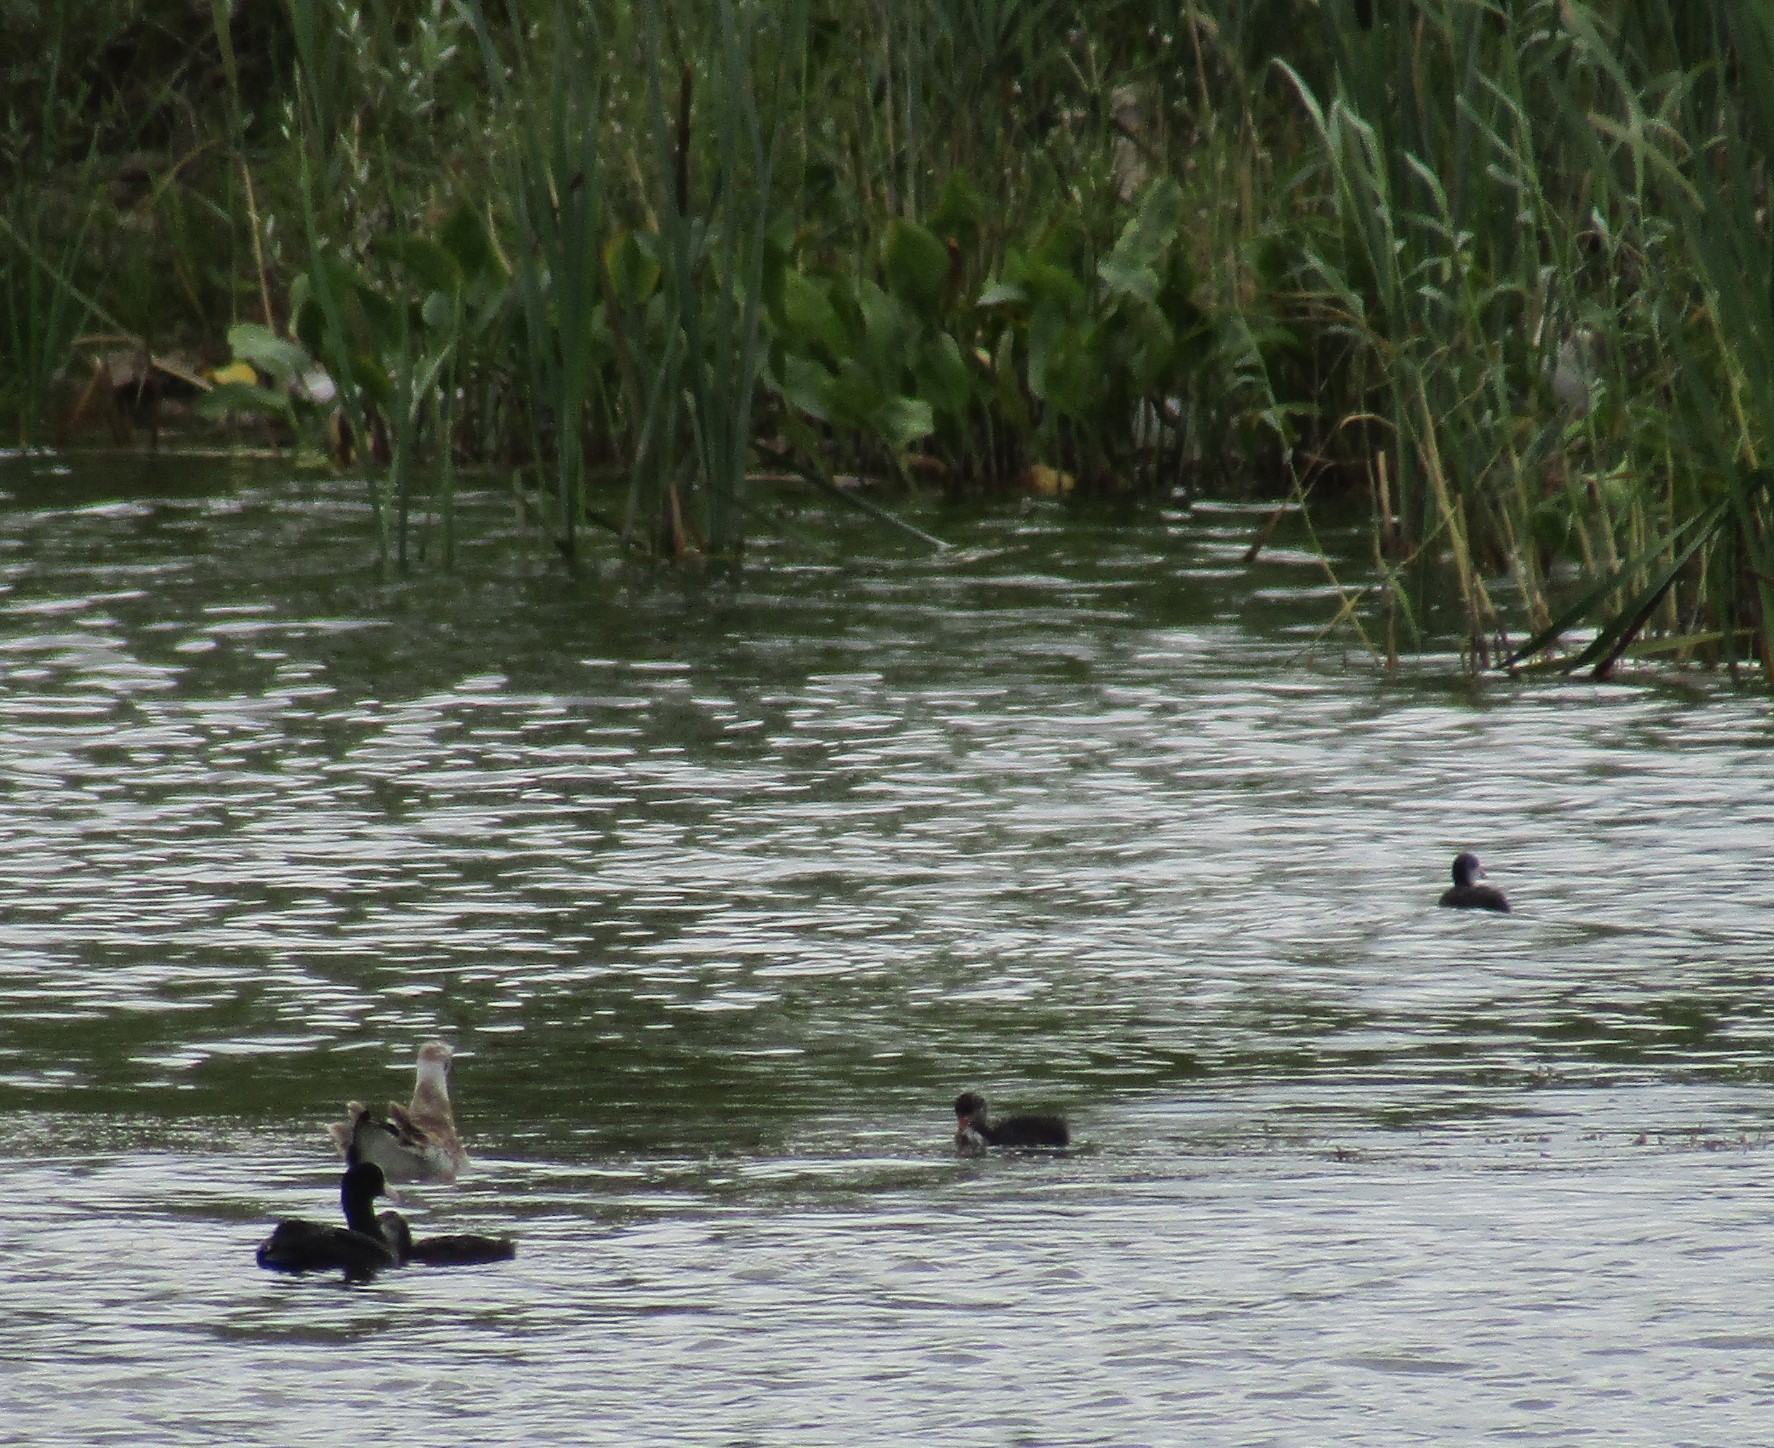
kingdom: Animalia
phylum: Chordata
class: Aves
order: Gruiformes
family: Rallidae
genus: Fulica
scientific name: Fulica atra
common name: Eurasian coot
